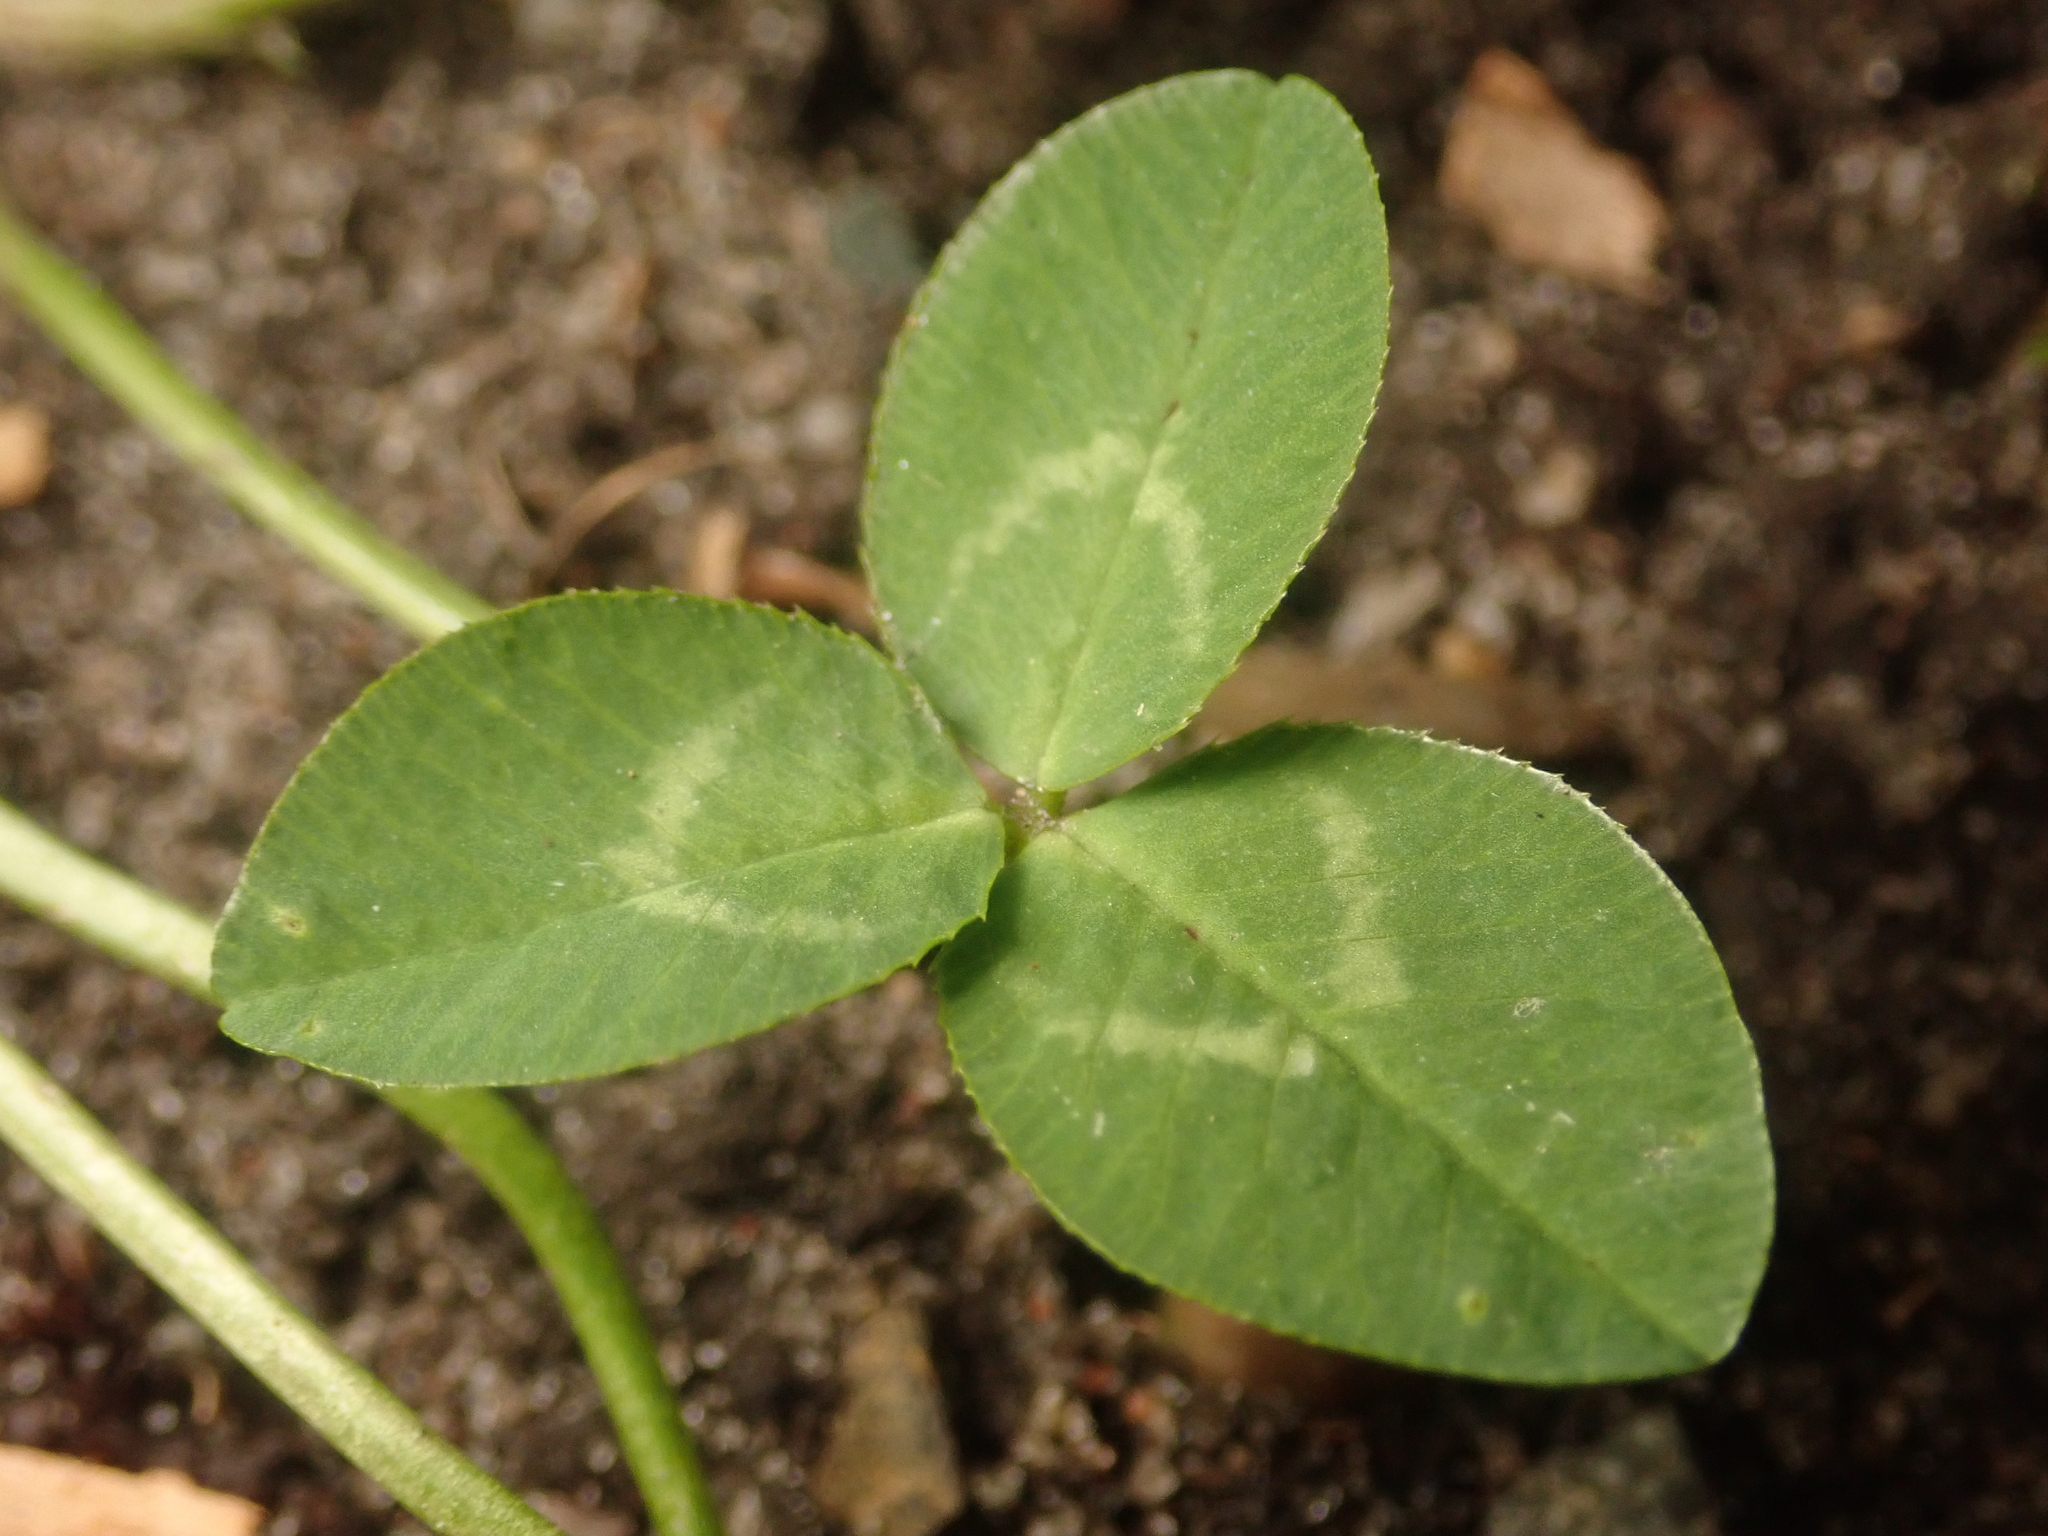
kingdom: Plantae
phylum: Tracheophyta
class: Magnoliopsida
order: Fabales
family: Fabaceae
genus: Trifolium
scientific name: Trifolium repens
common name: White clover
